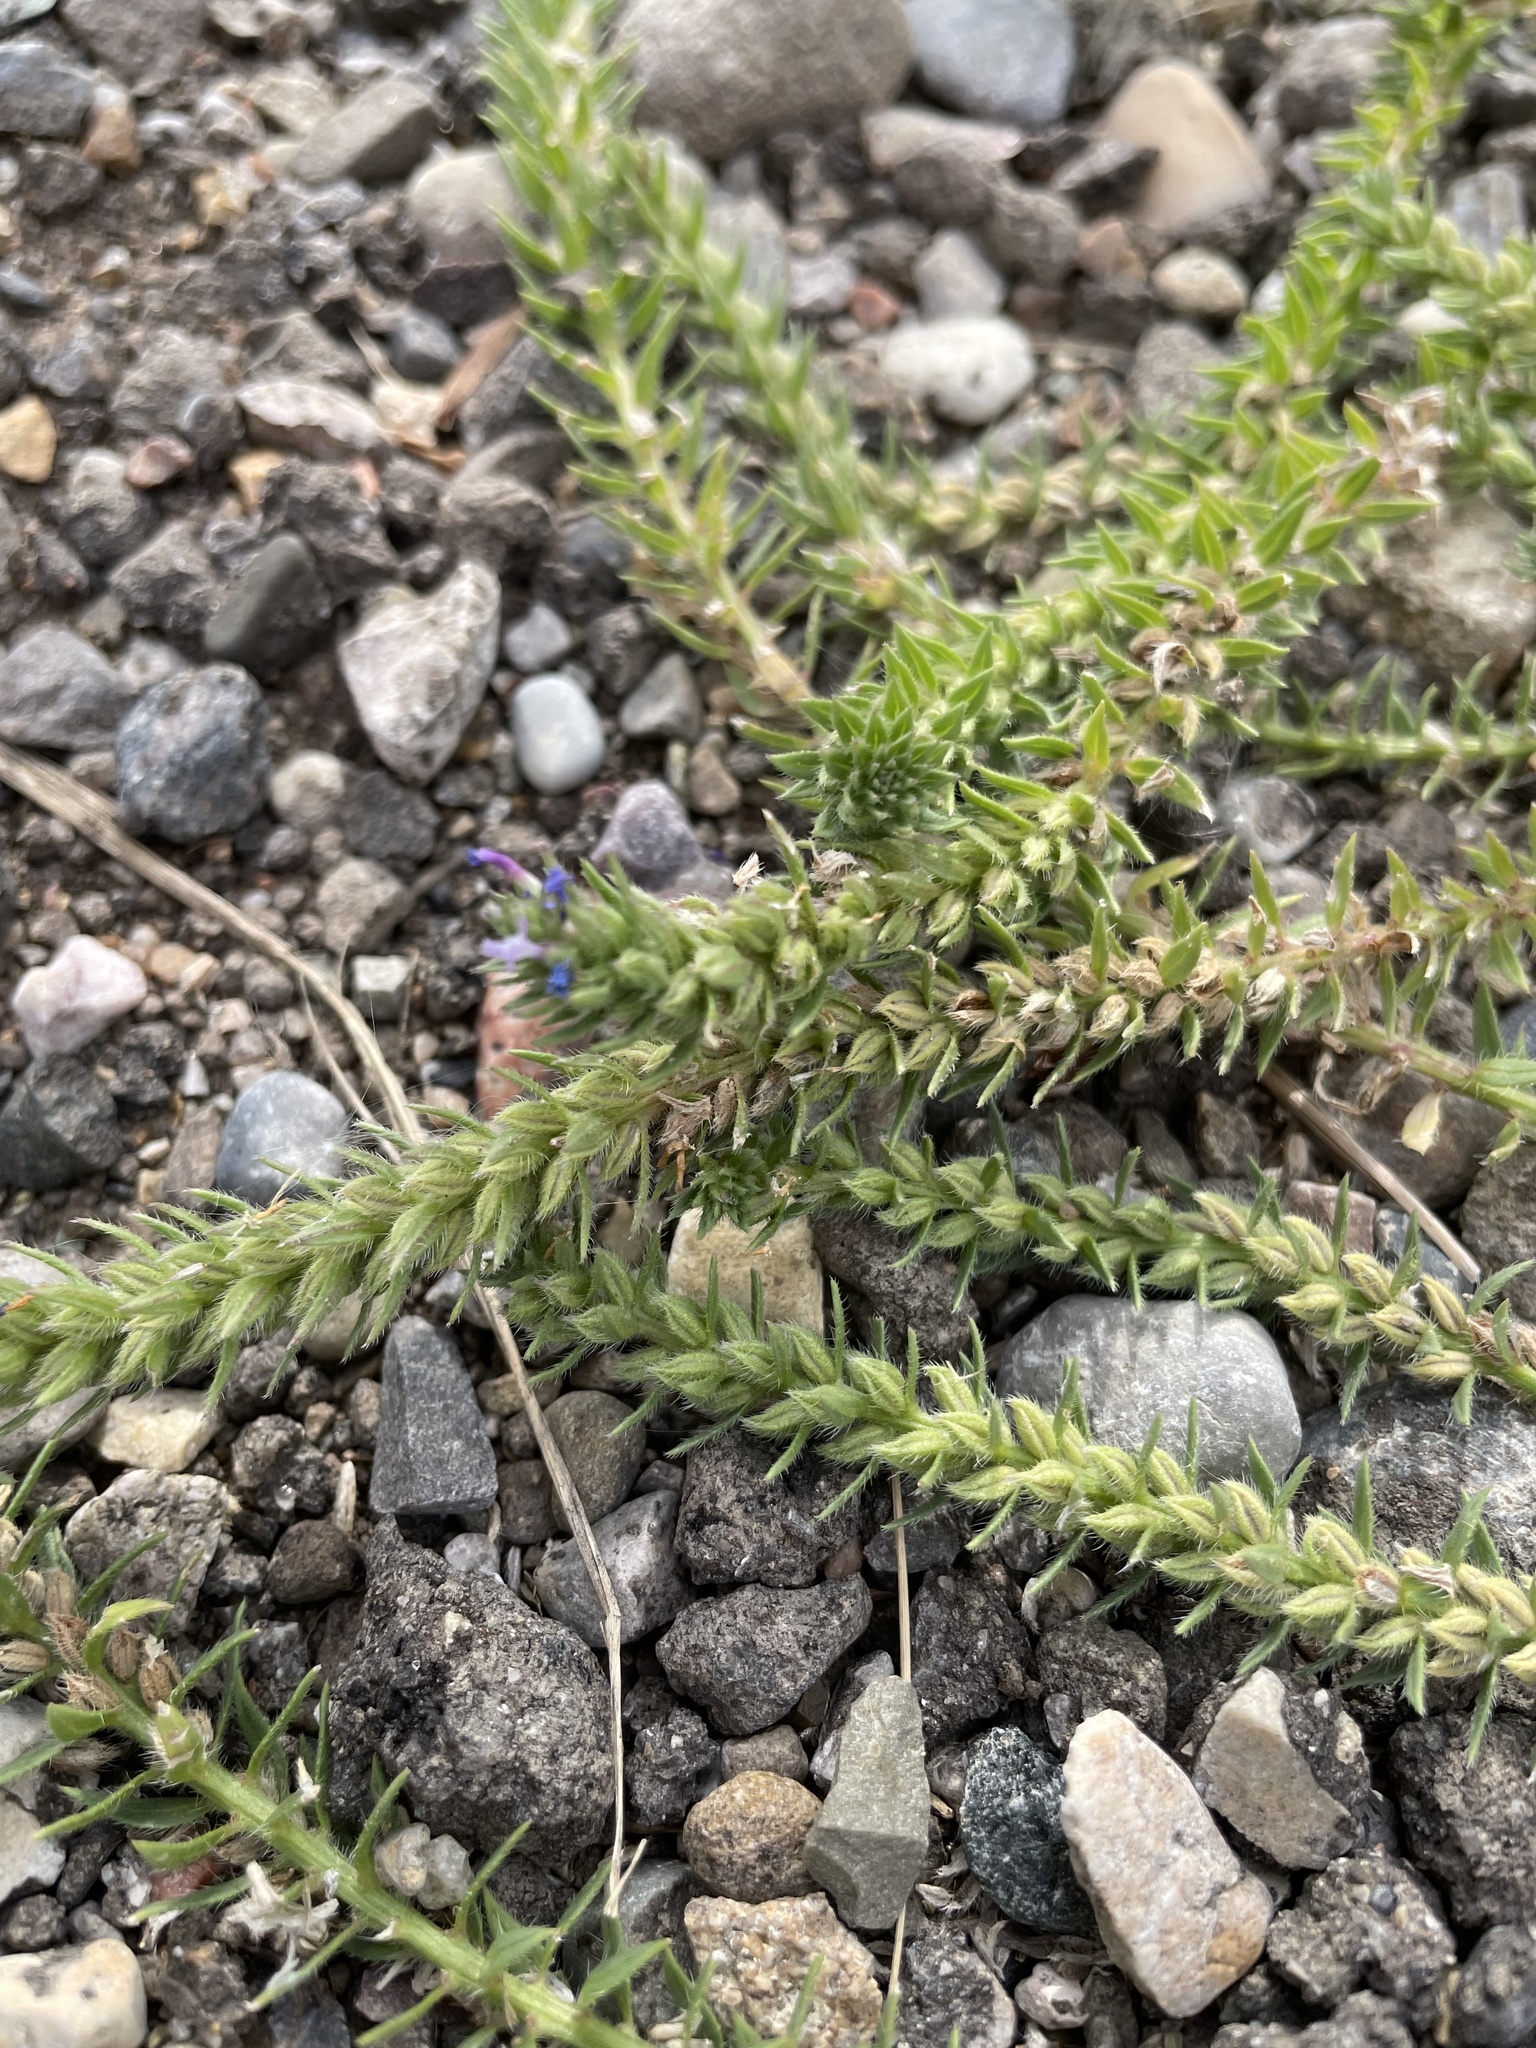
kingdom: Plantae
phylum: Tracheophyta
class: Magnoliopsida
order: Lamiales
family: Verbenaceae
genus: Verbena
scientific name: Verbena bracteata
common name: Bracted vervain
